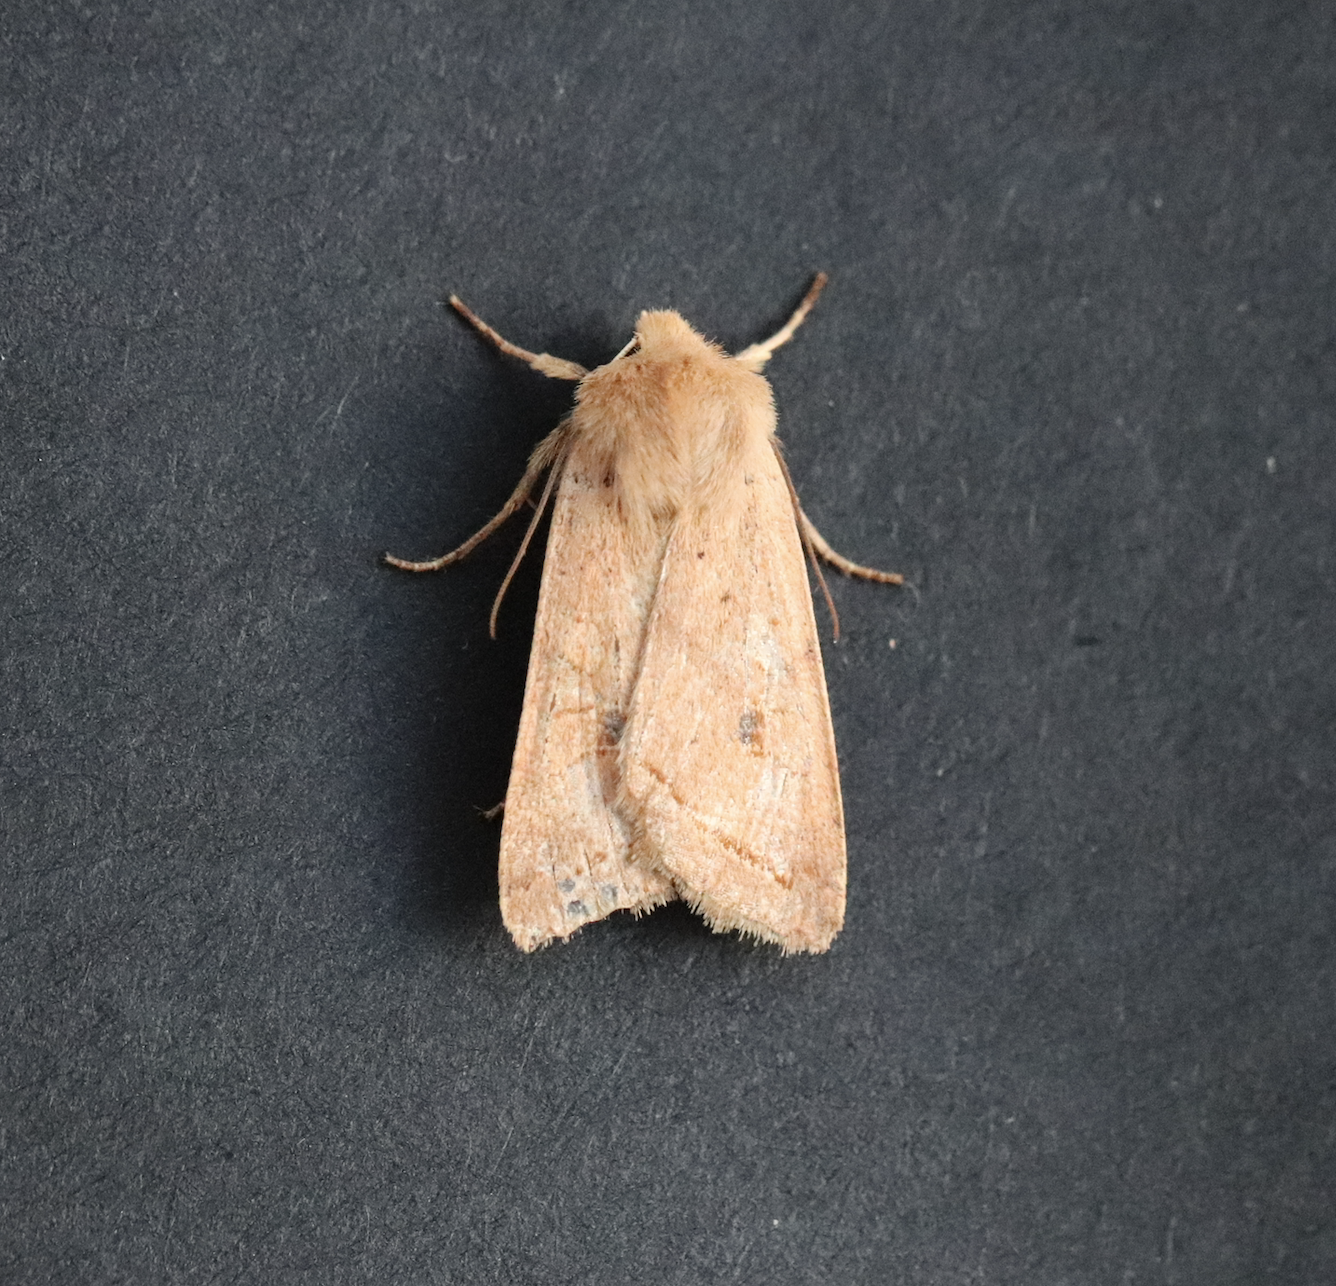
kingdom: Animalia
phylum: Arthropoda
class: Insecta
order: Lepidoptera
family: Noctuidae
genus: Agrochola
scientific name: Agrochola macilenta
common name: Yellow-line quaker
